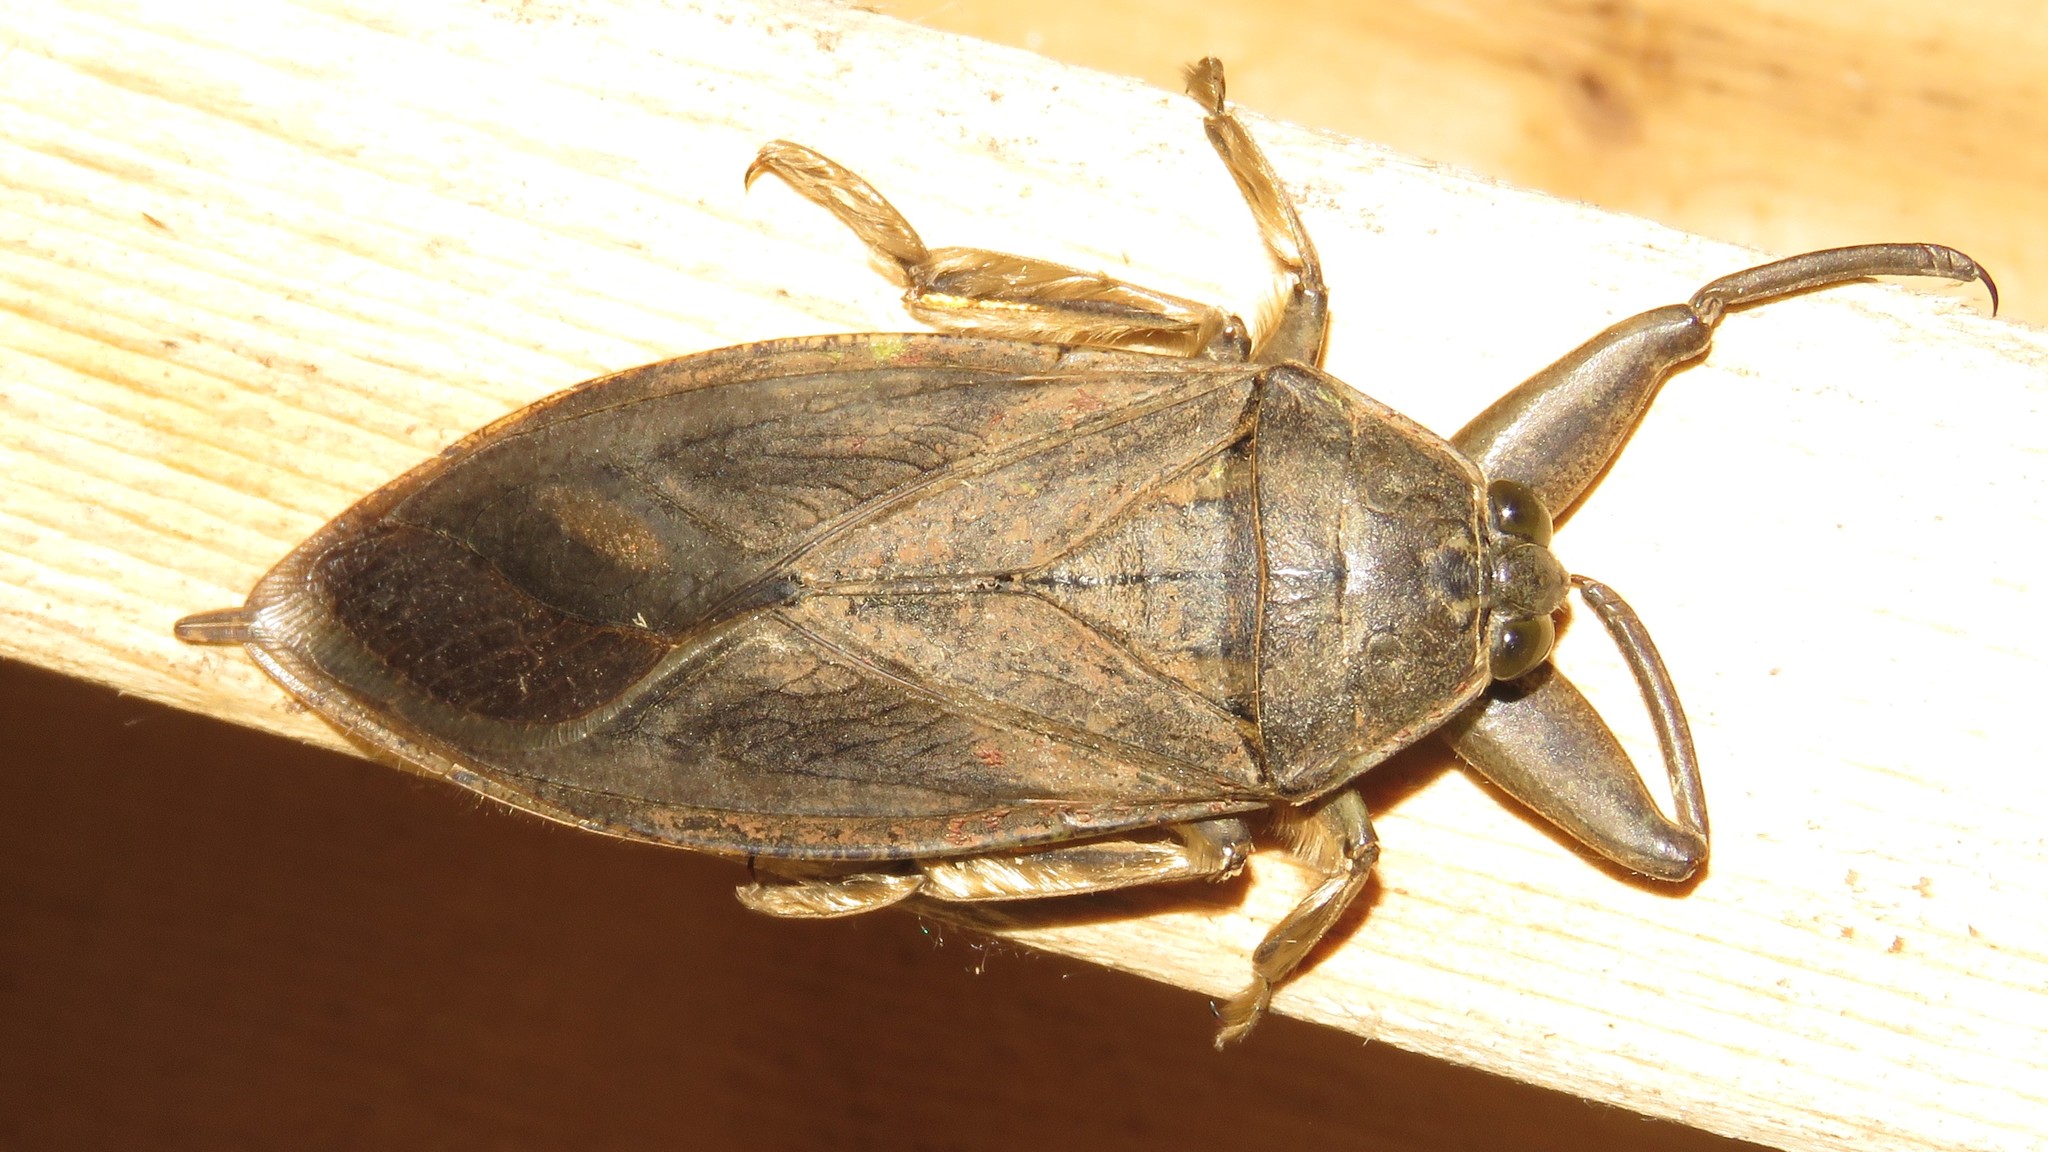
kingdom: Animalia
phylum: Arthropoda
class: Insecta
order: Hemiptera
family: Belostomatidae
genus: Lethocerus
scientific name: Lethocerus americanus
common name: Giant water bug
